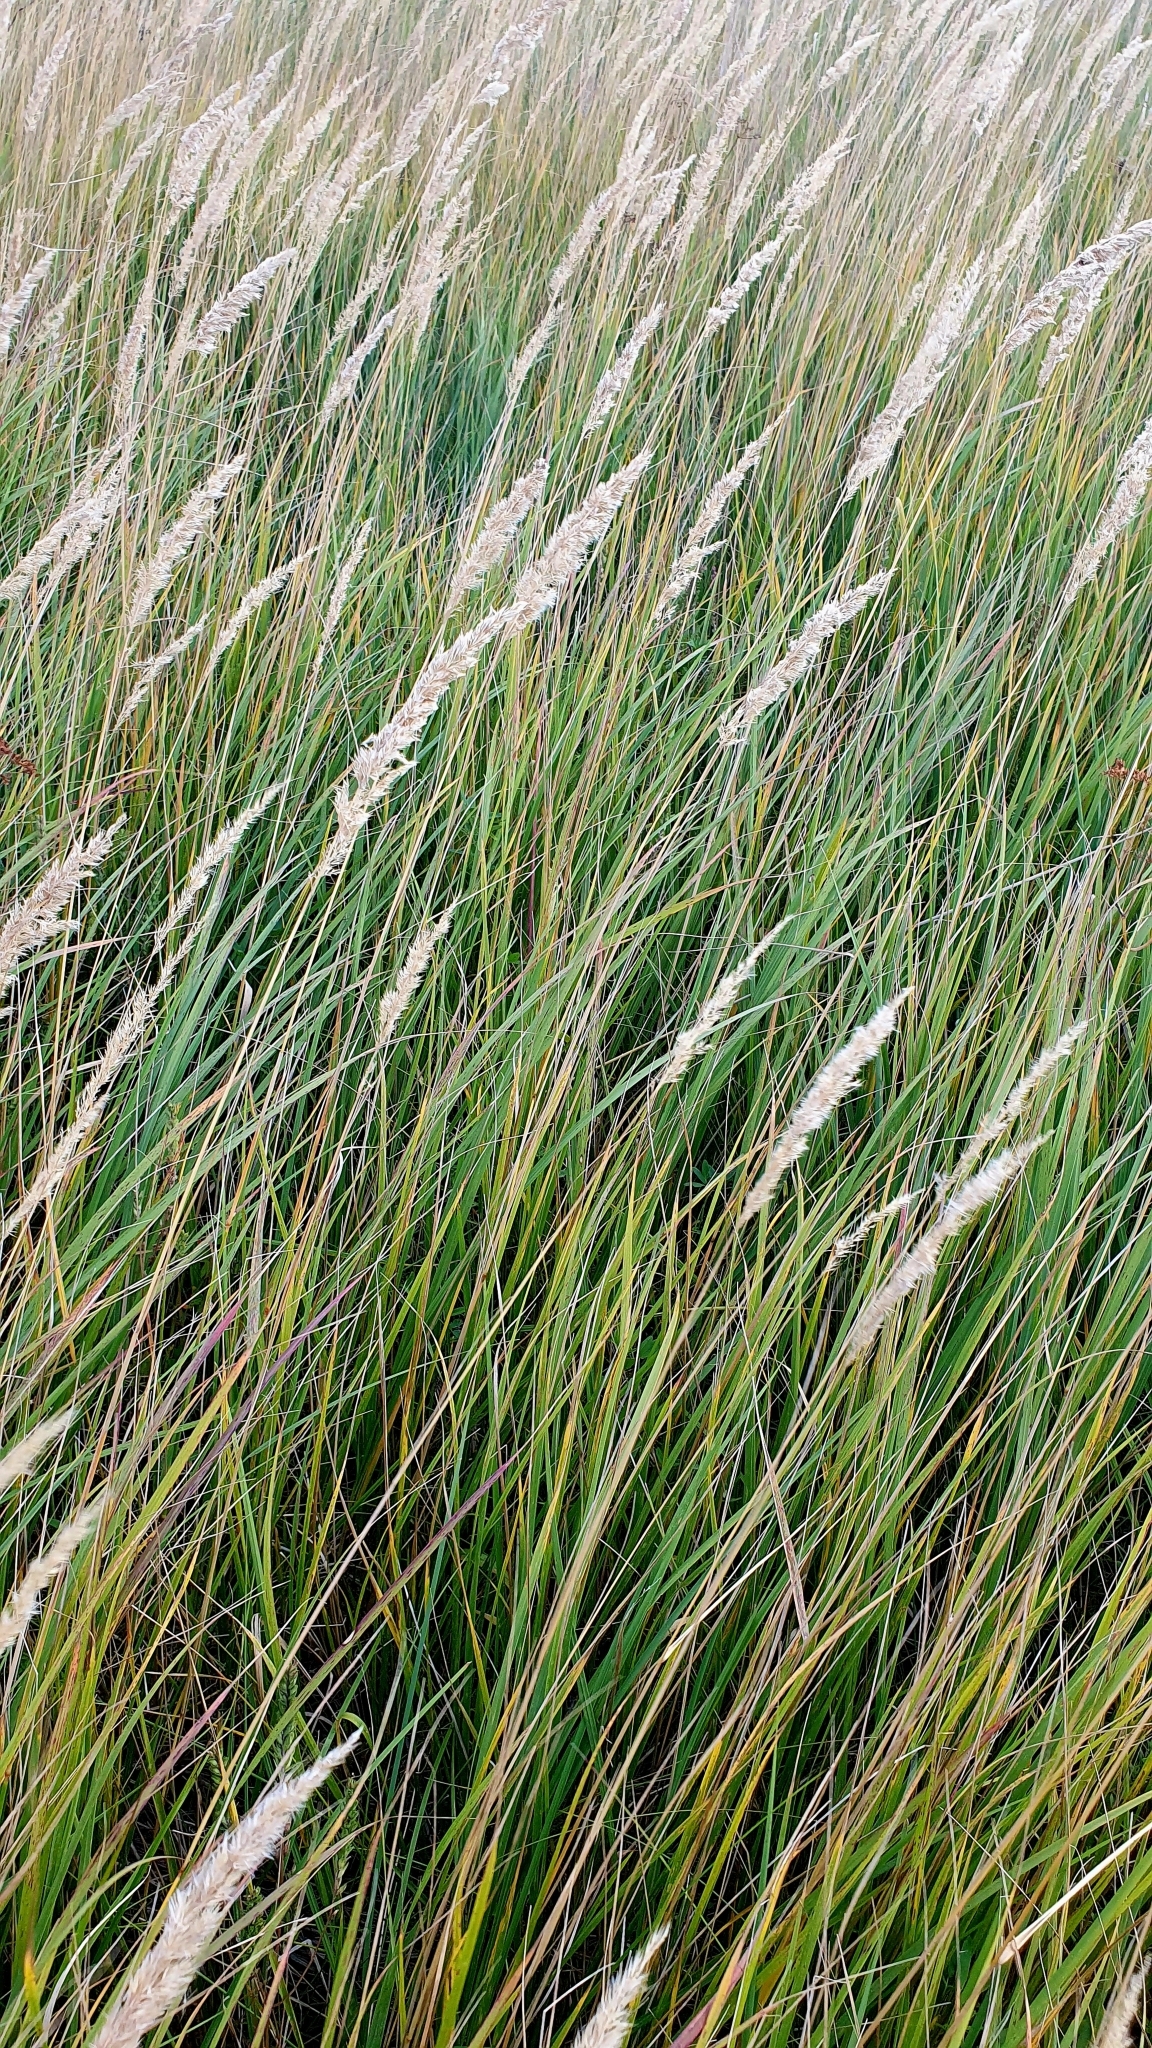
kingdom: Plantae
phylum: Tracheophyta
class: Liliopsida
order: Poales
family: Poaceae
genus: Calamagrostis
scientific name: Calamagrostis epigejos
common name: Wood small-reed
